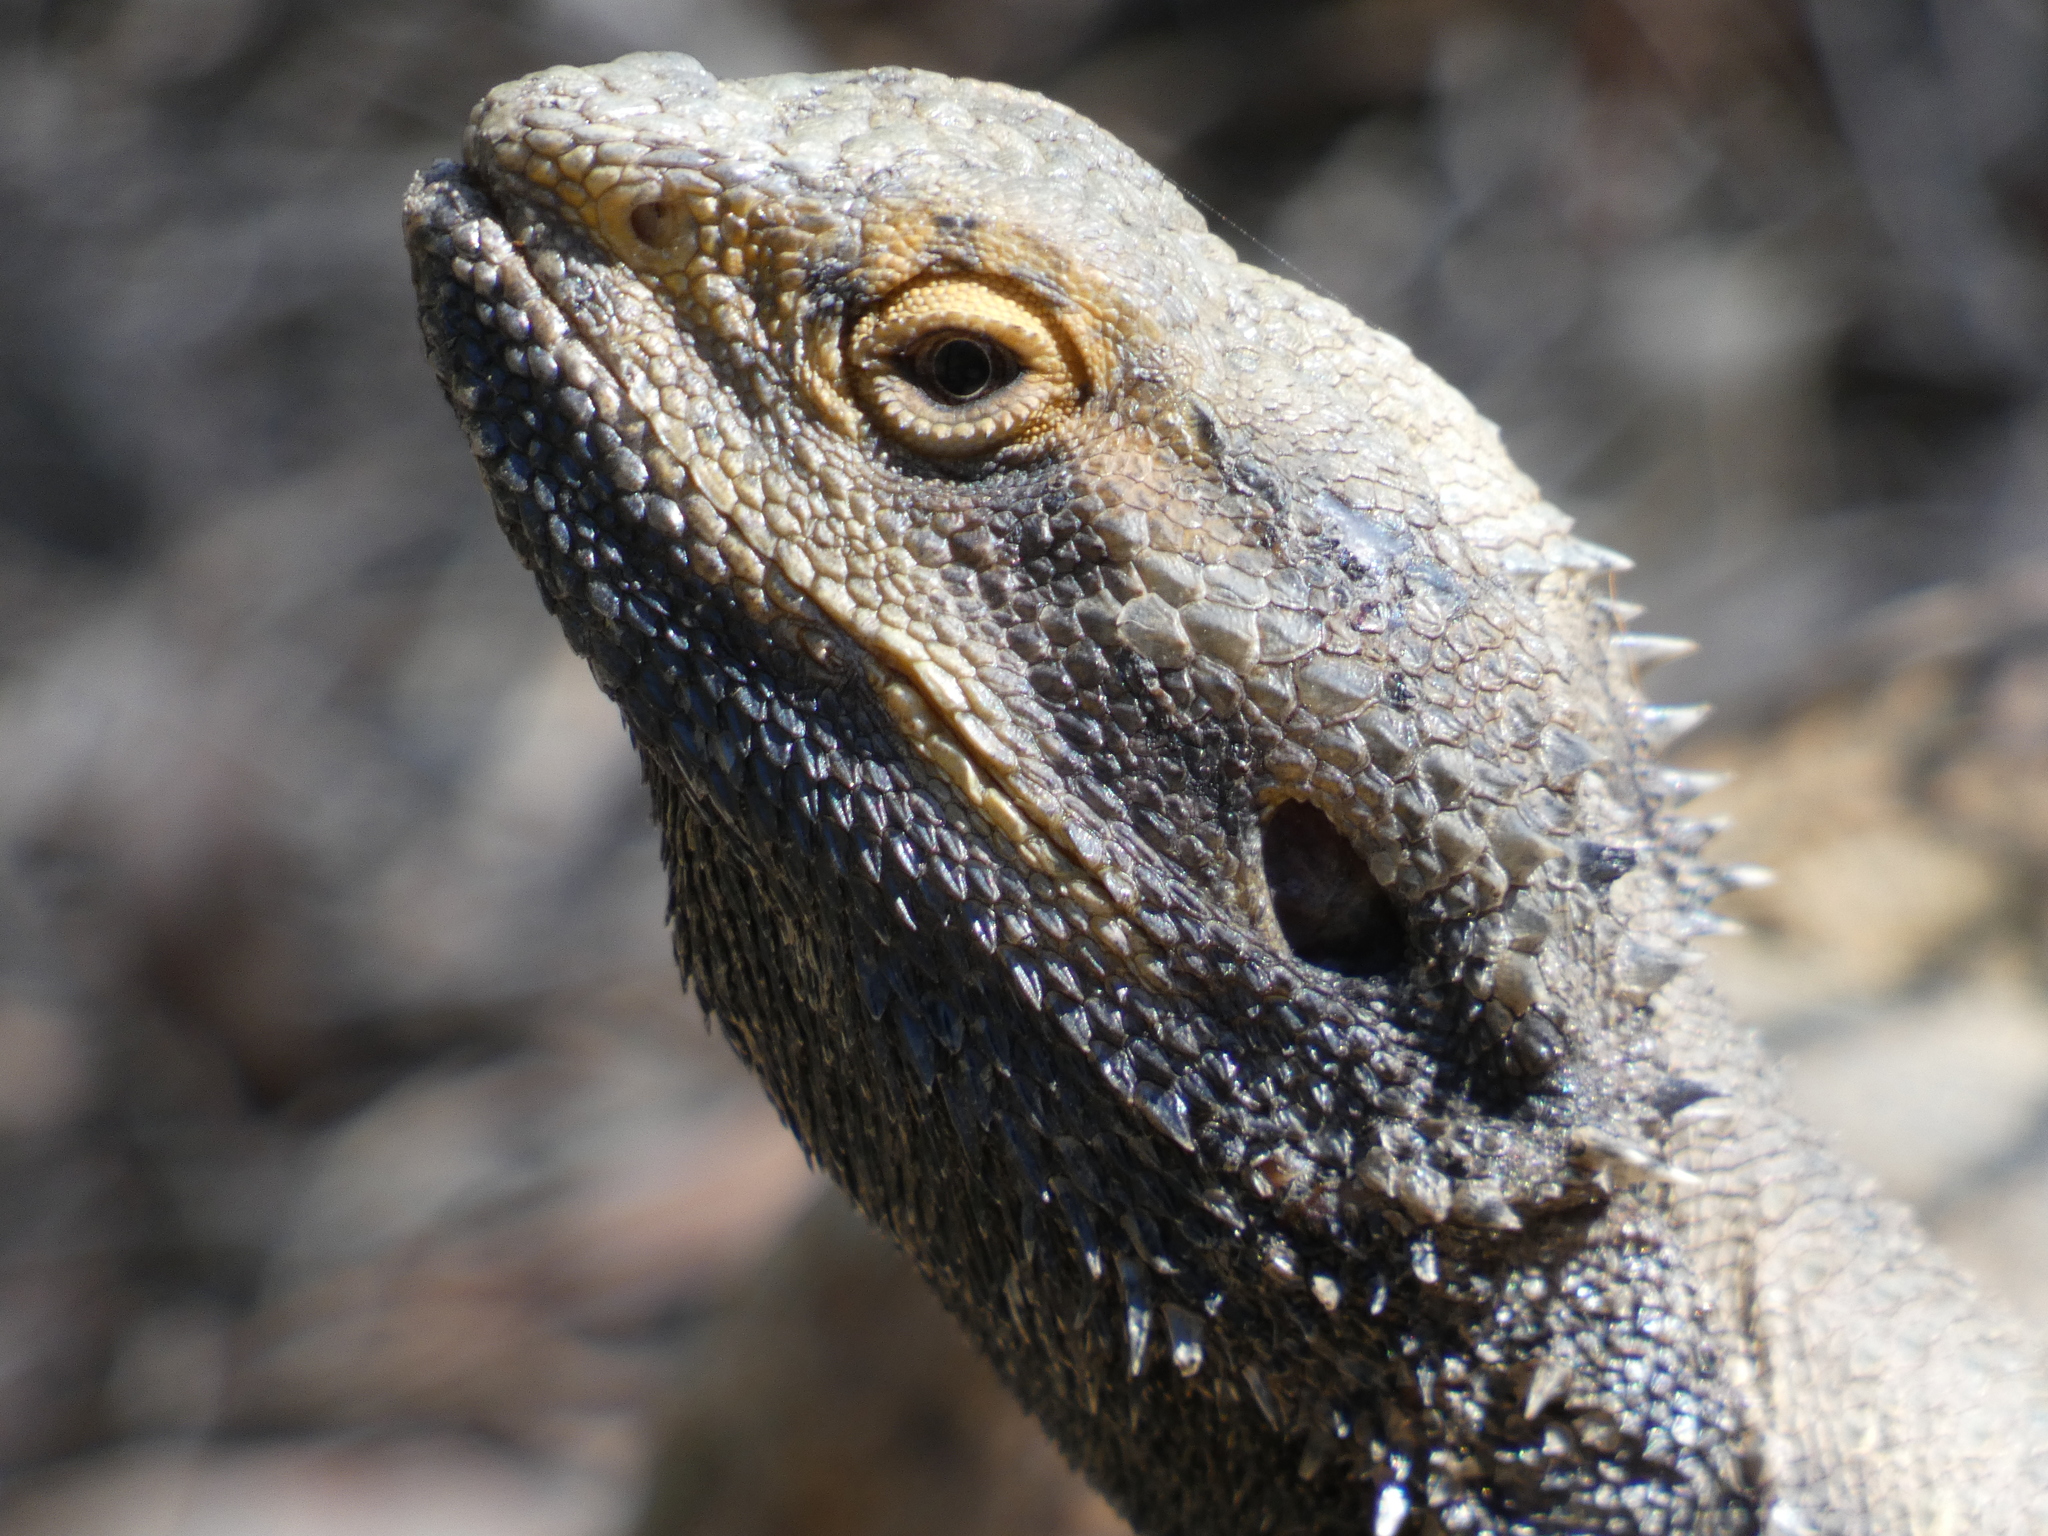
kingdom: Animalia
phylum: Chordata
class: Squamata
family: Agamidae
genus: Pogona
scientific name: Pogona barbata
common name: Bearded dragon
